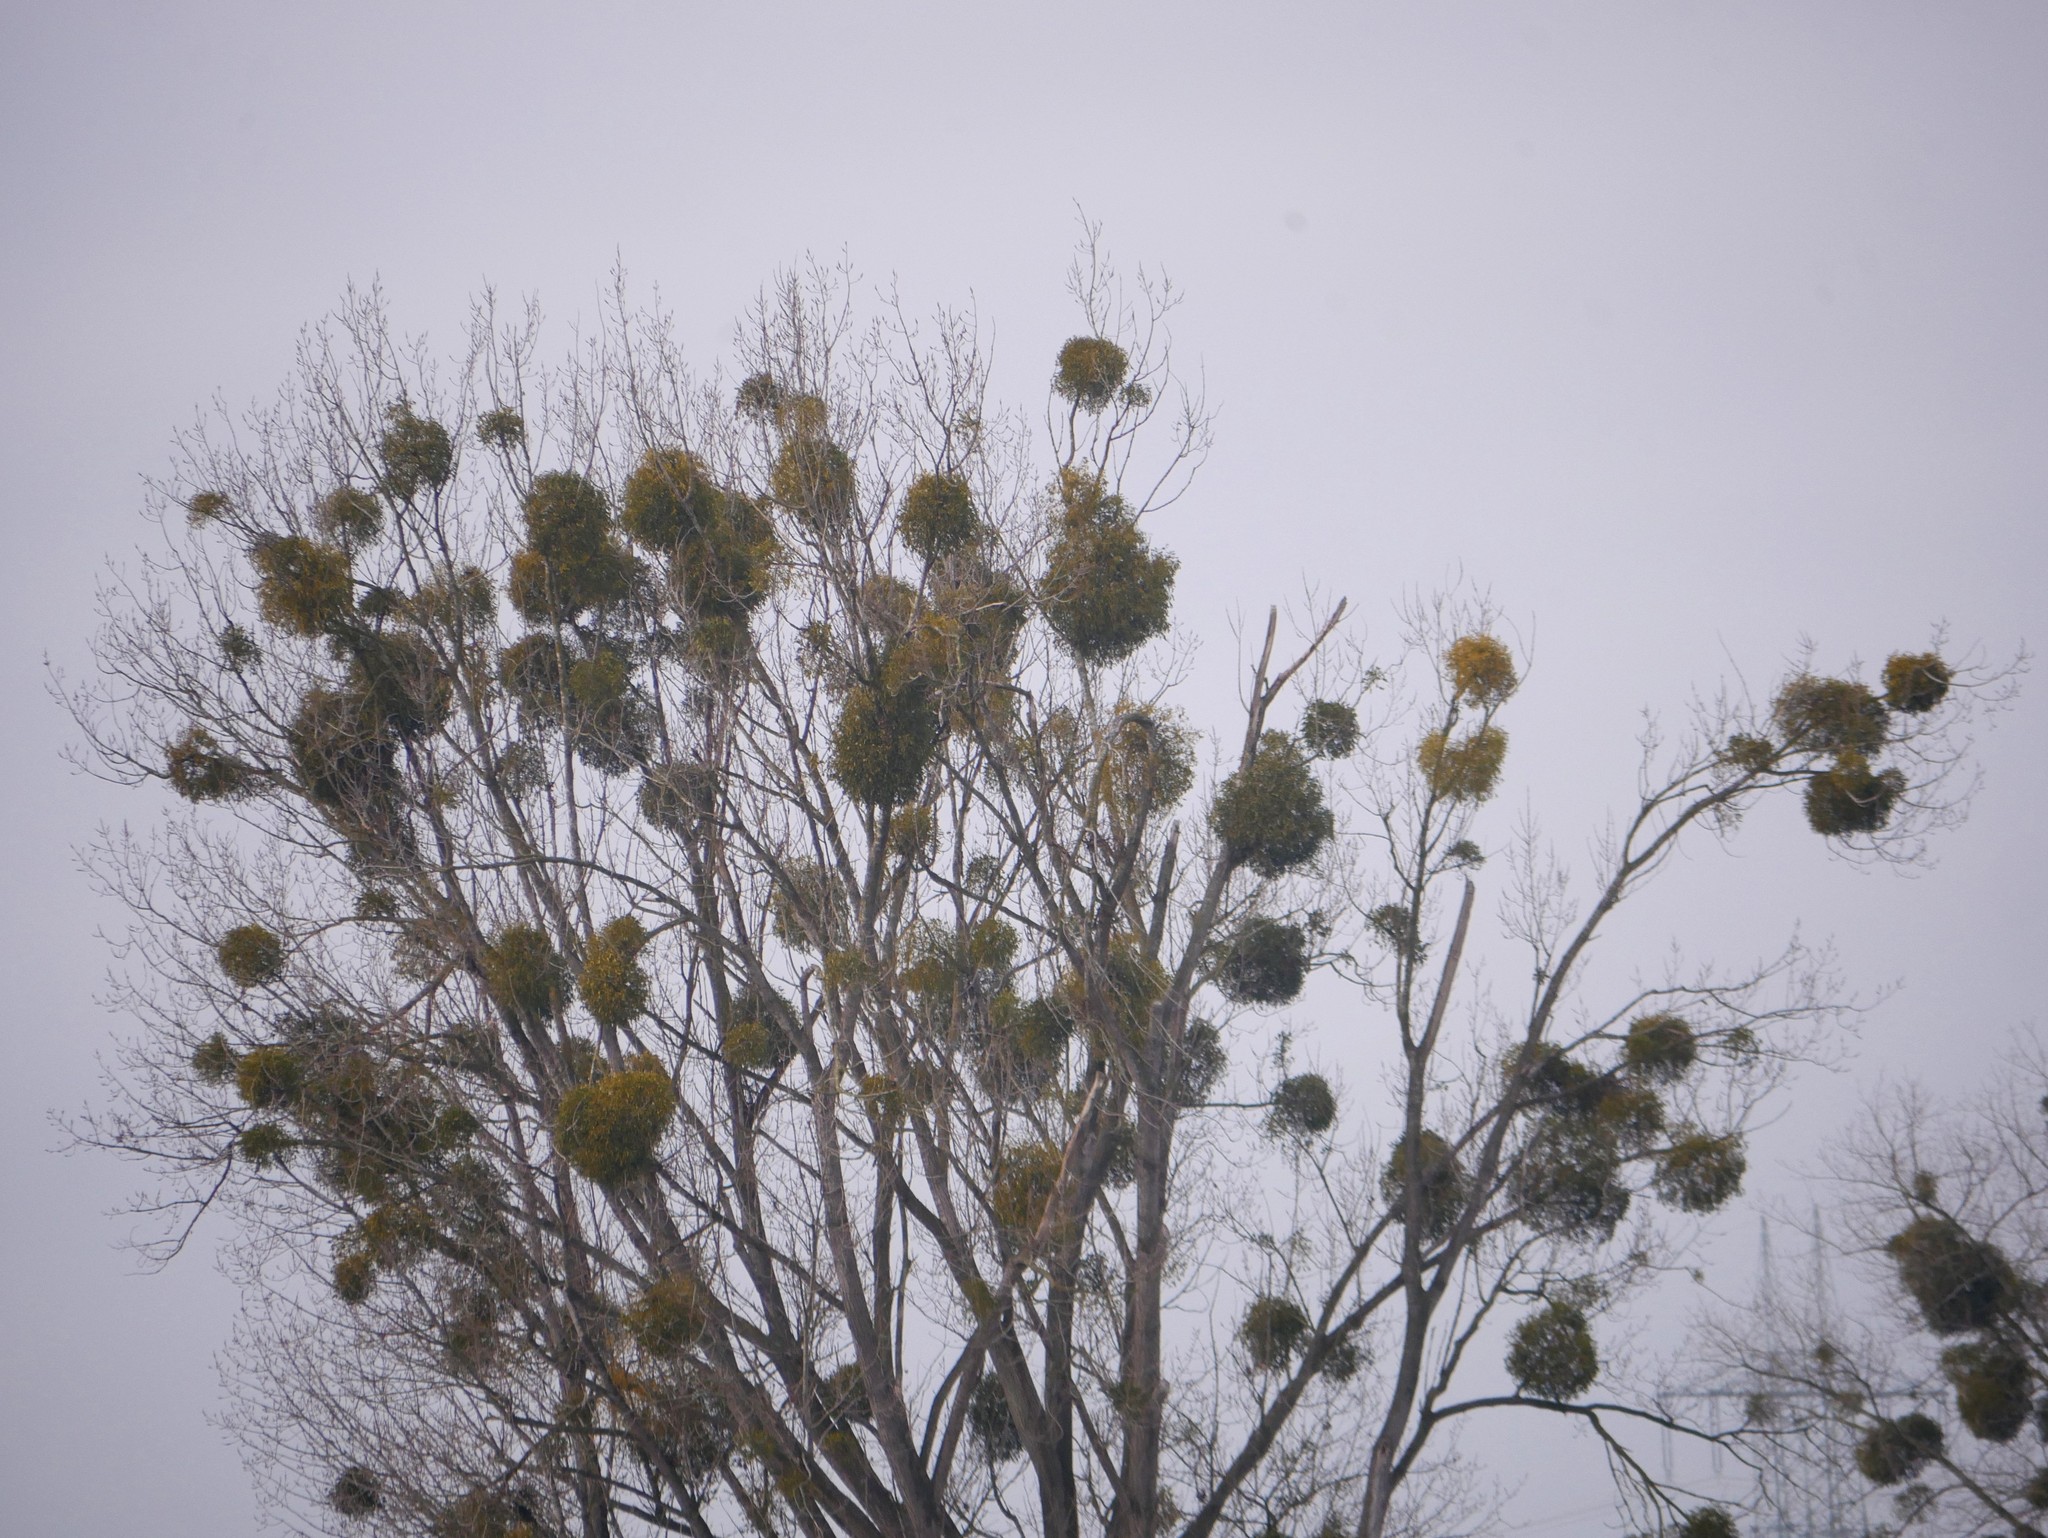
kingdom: Plantae
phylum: Tracheophyta
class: Magnoliopsida
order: Santalales
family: Viscaceae
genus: Viscum
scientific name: Viscum album
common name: Mistletoe
